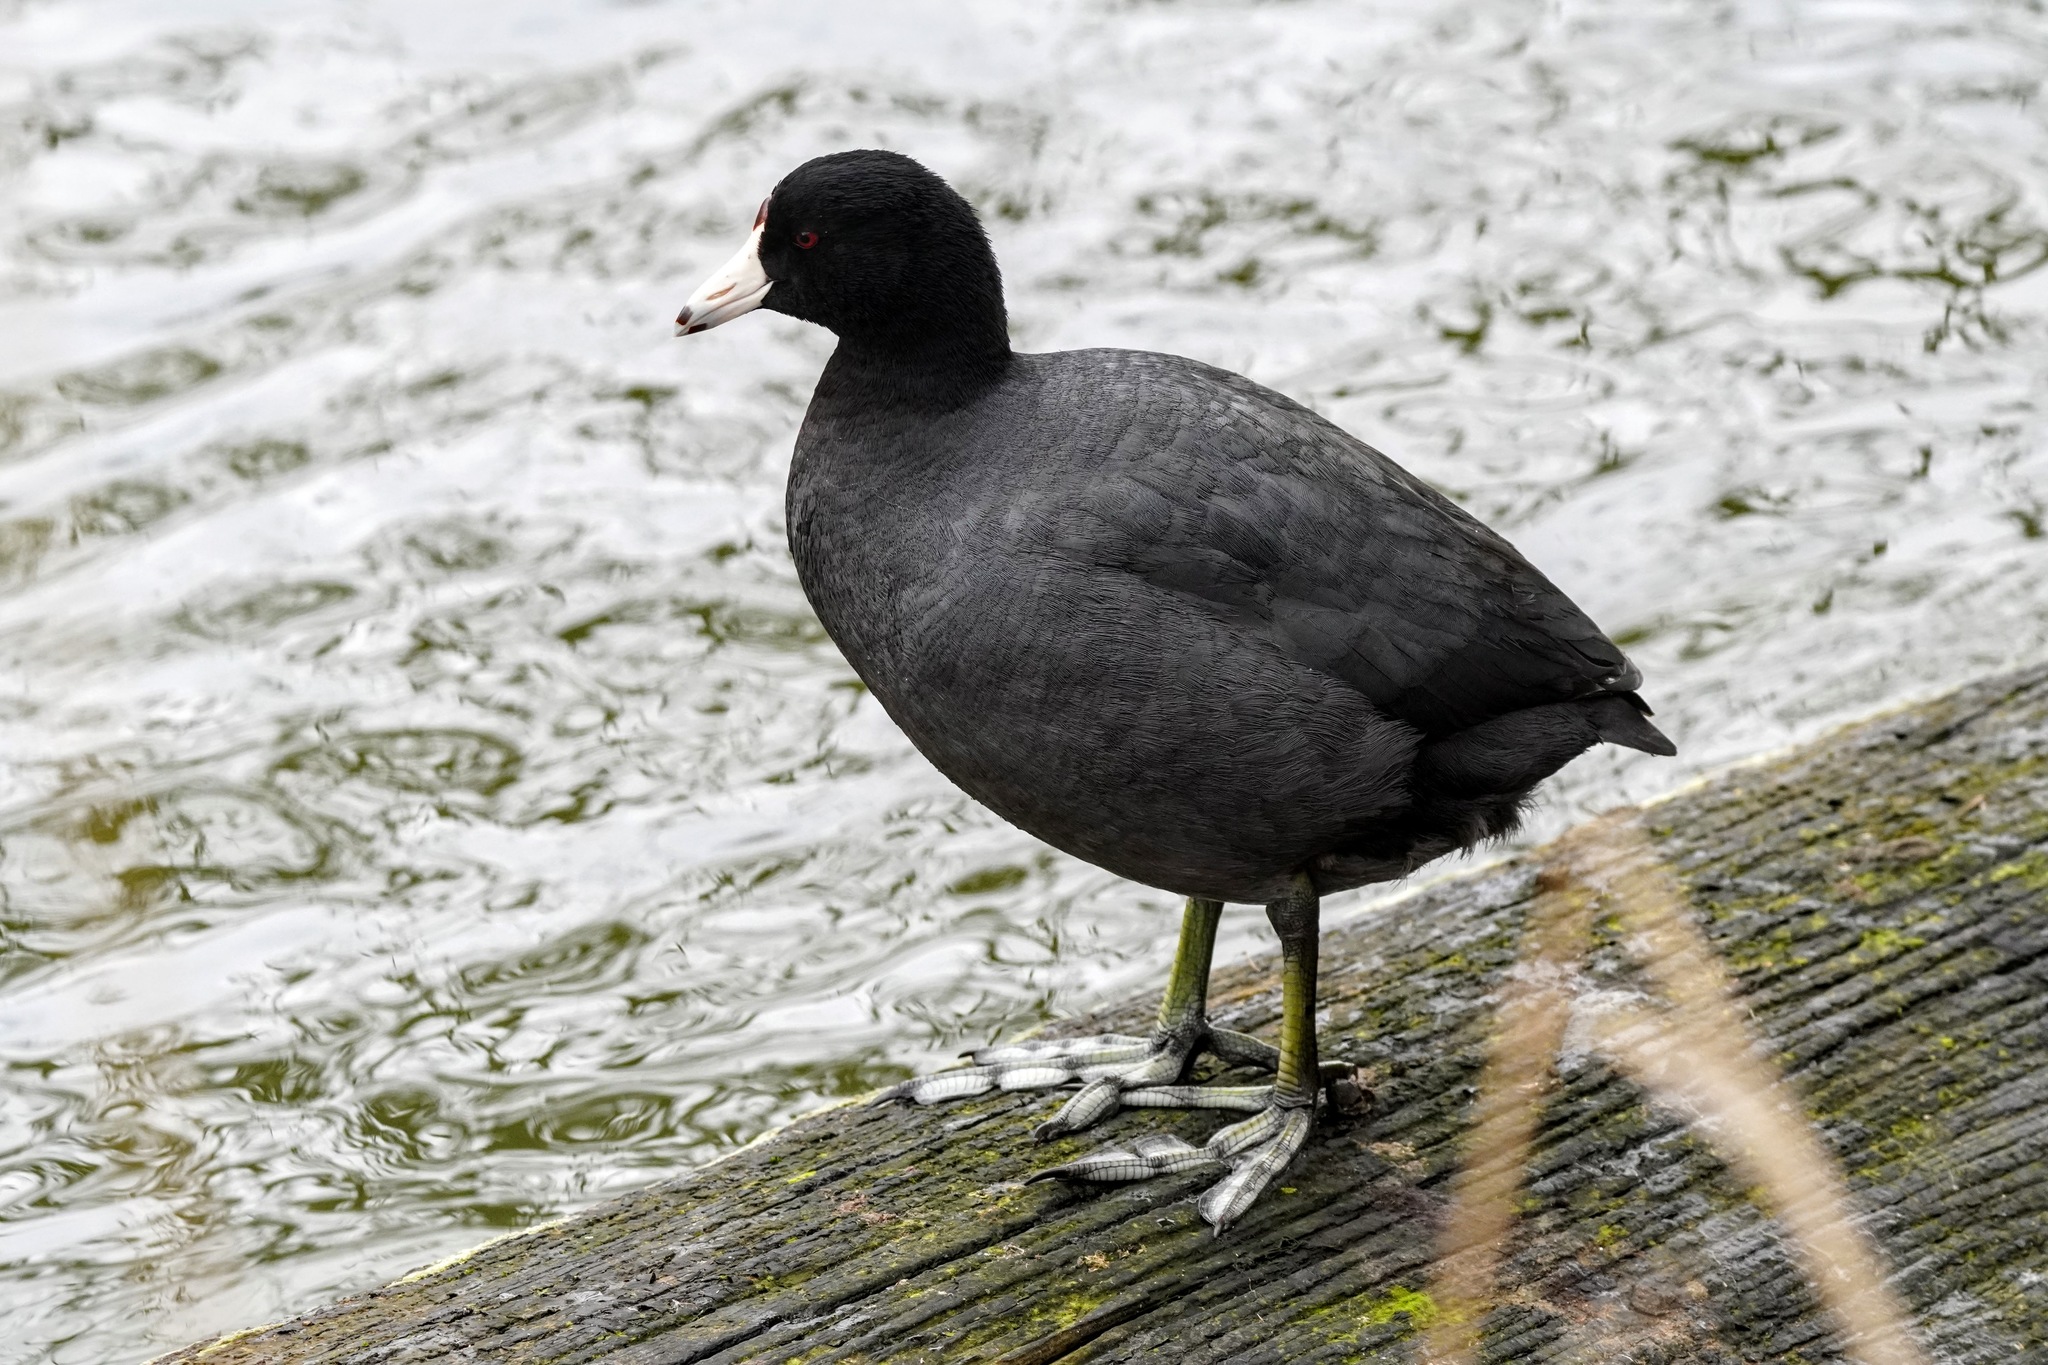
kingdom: Animalia
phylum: Chordata
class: Aves
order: Gruiformes
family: Rallidae
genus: Fulica
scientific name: Fulica americana
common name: American coot
